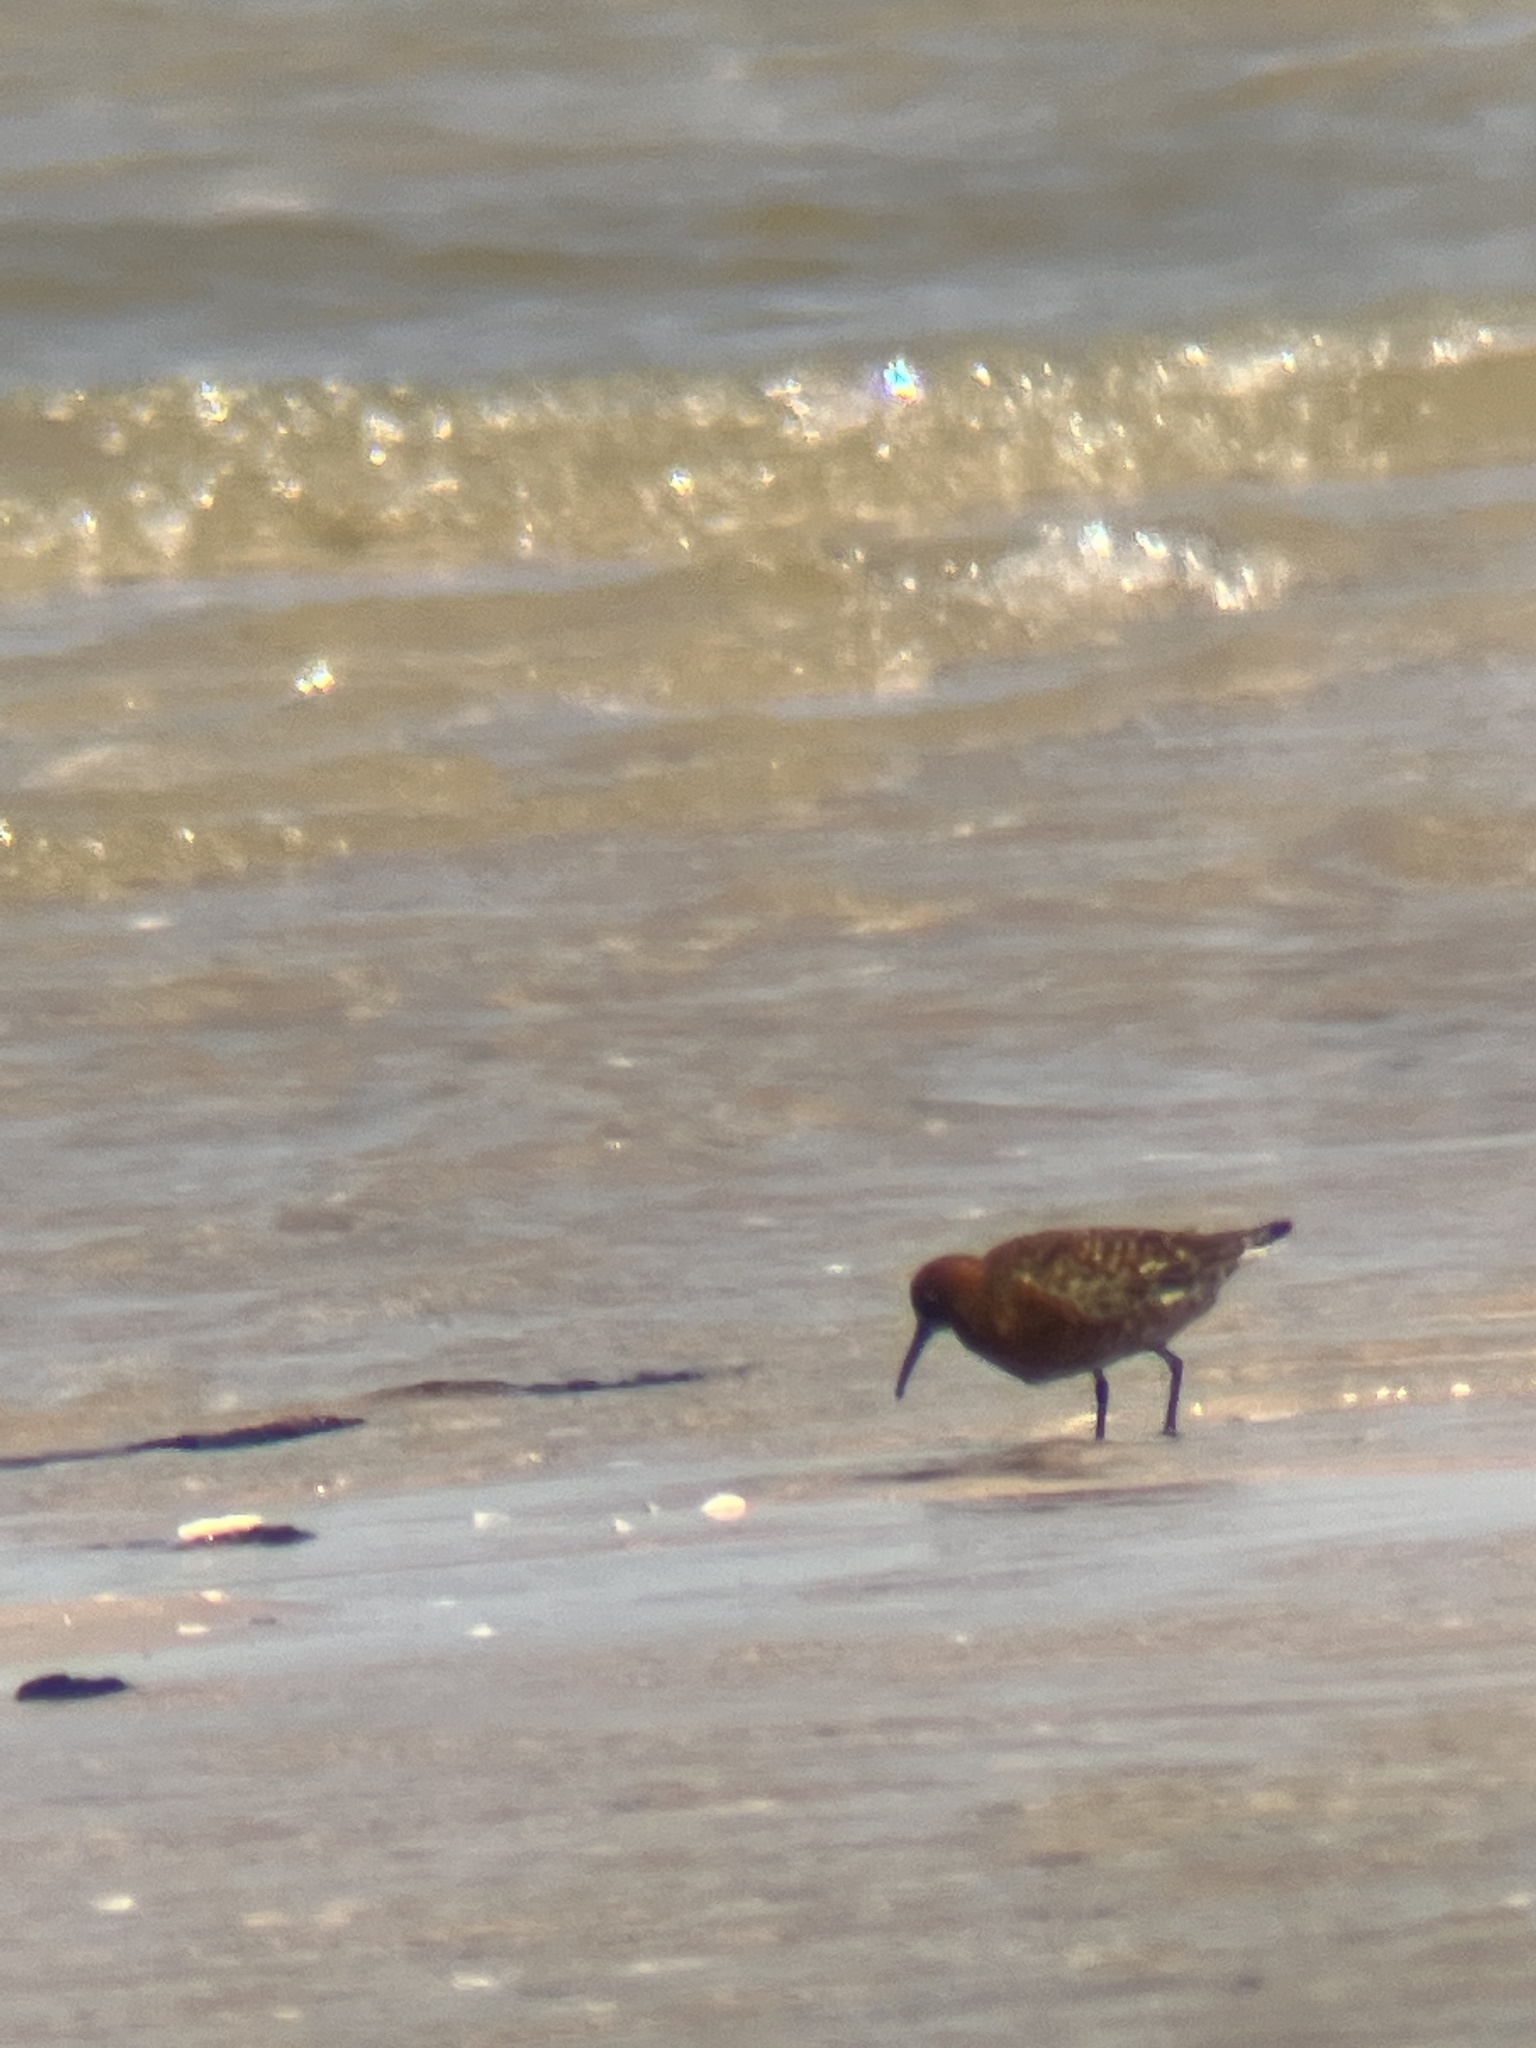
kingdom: Animalia
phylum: Chordata
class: Aves
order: Charadriiformes
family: Scolopacidae
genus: Calidris
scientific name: Calidris ferruginea
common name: Curlew sandpiper
